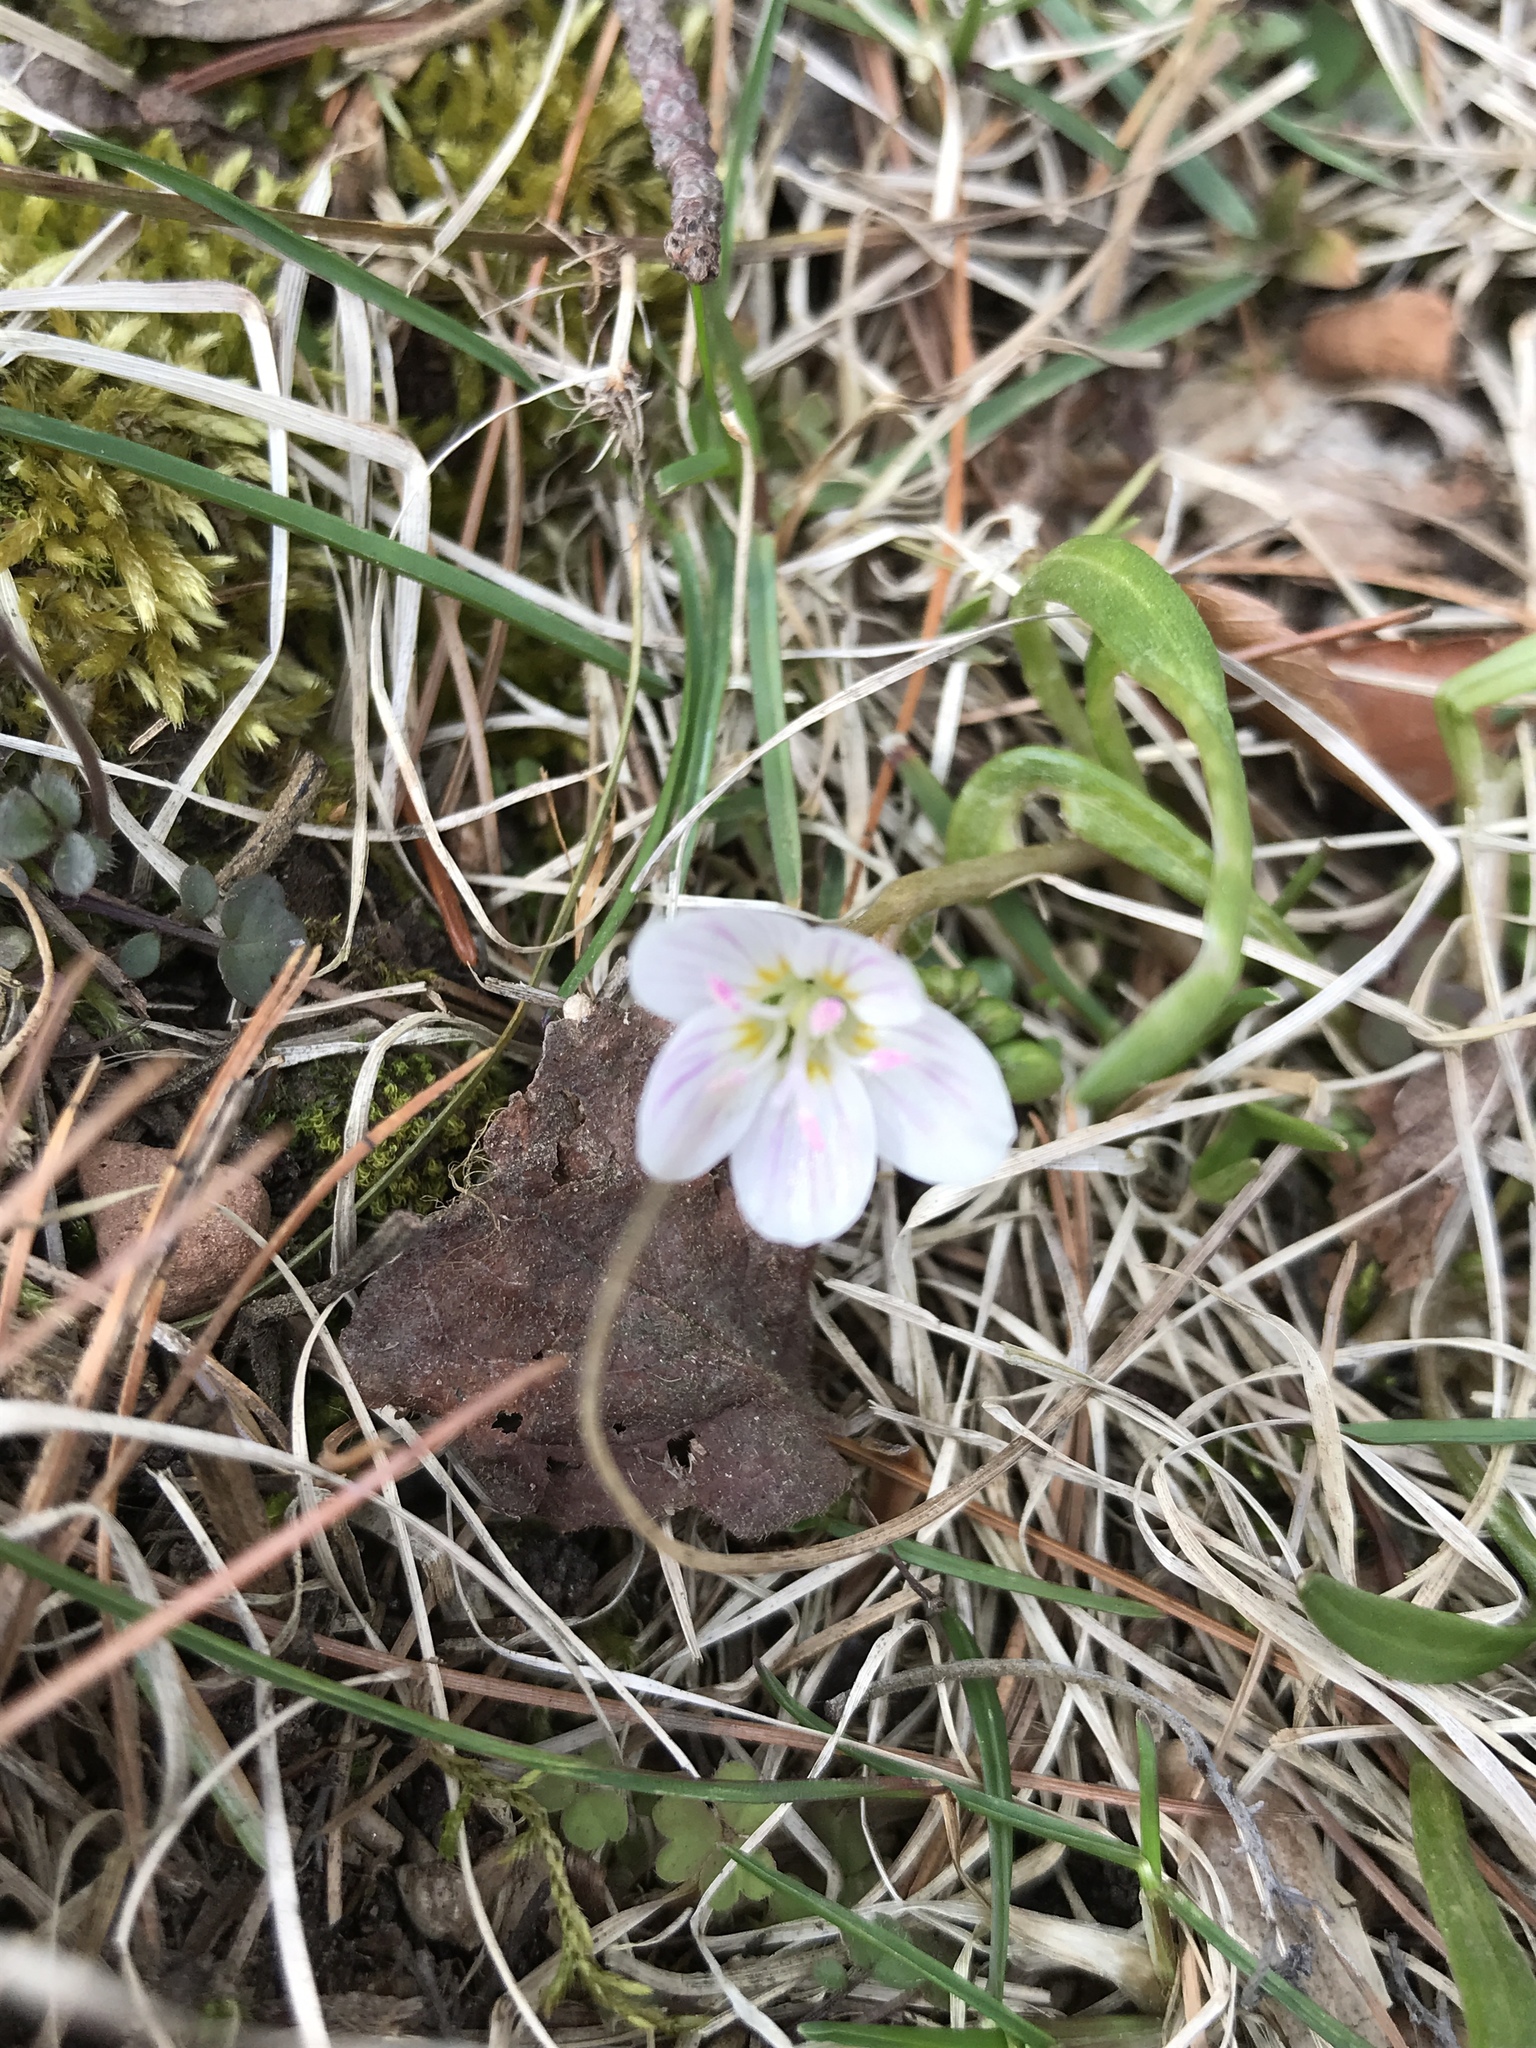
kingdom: Plantae
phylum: Tracheophyta
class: Magnoliopsida
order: Caryophyllales
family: Montiaceae
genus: Claytonia
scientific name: Claytonia virginica
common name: Virginia springbeauty
